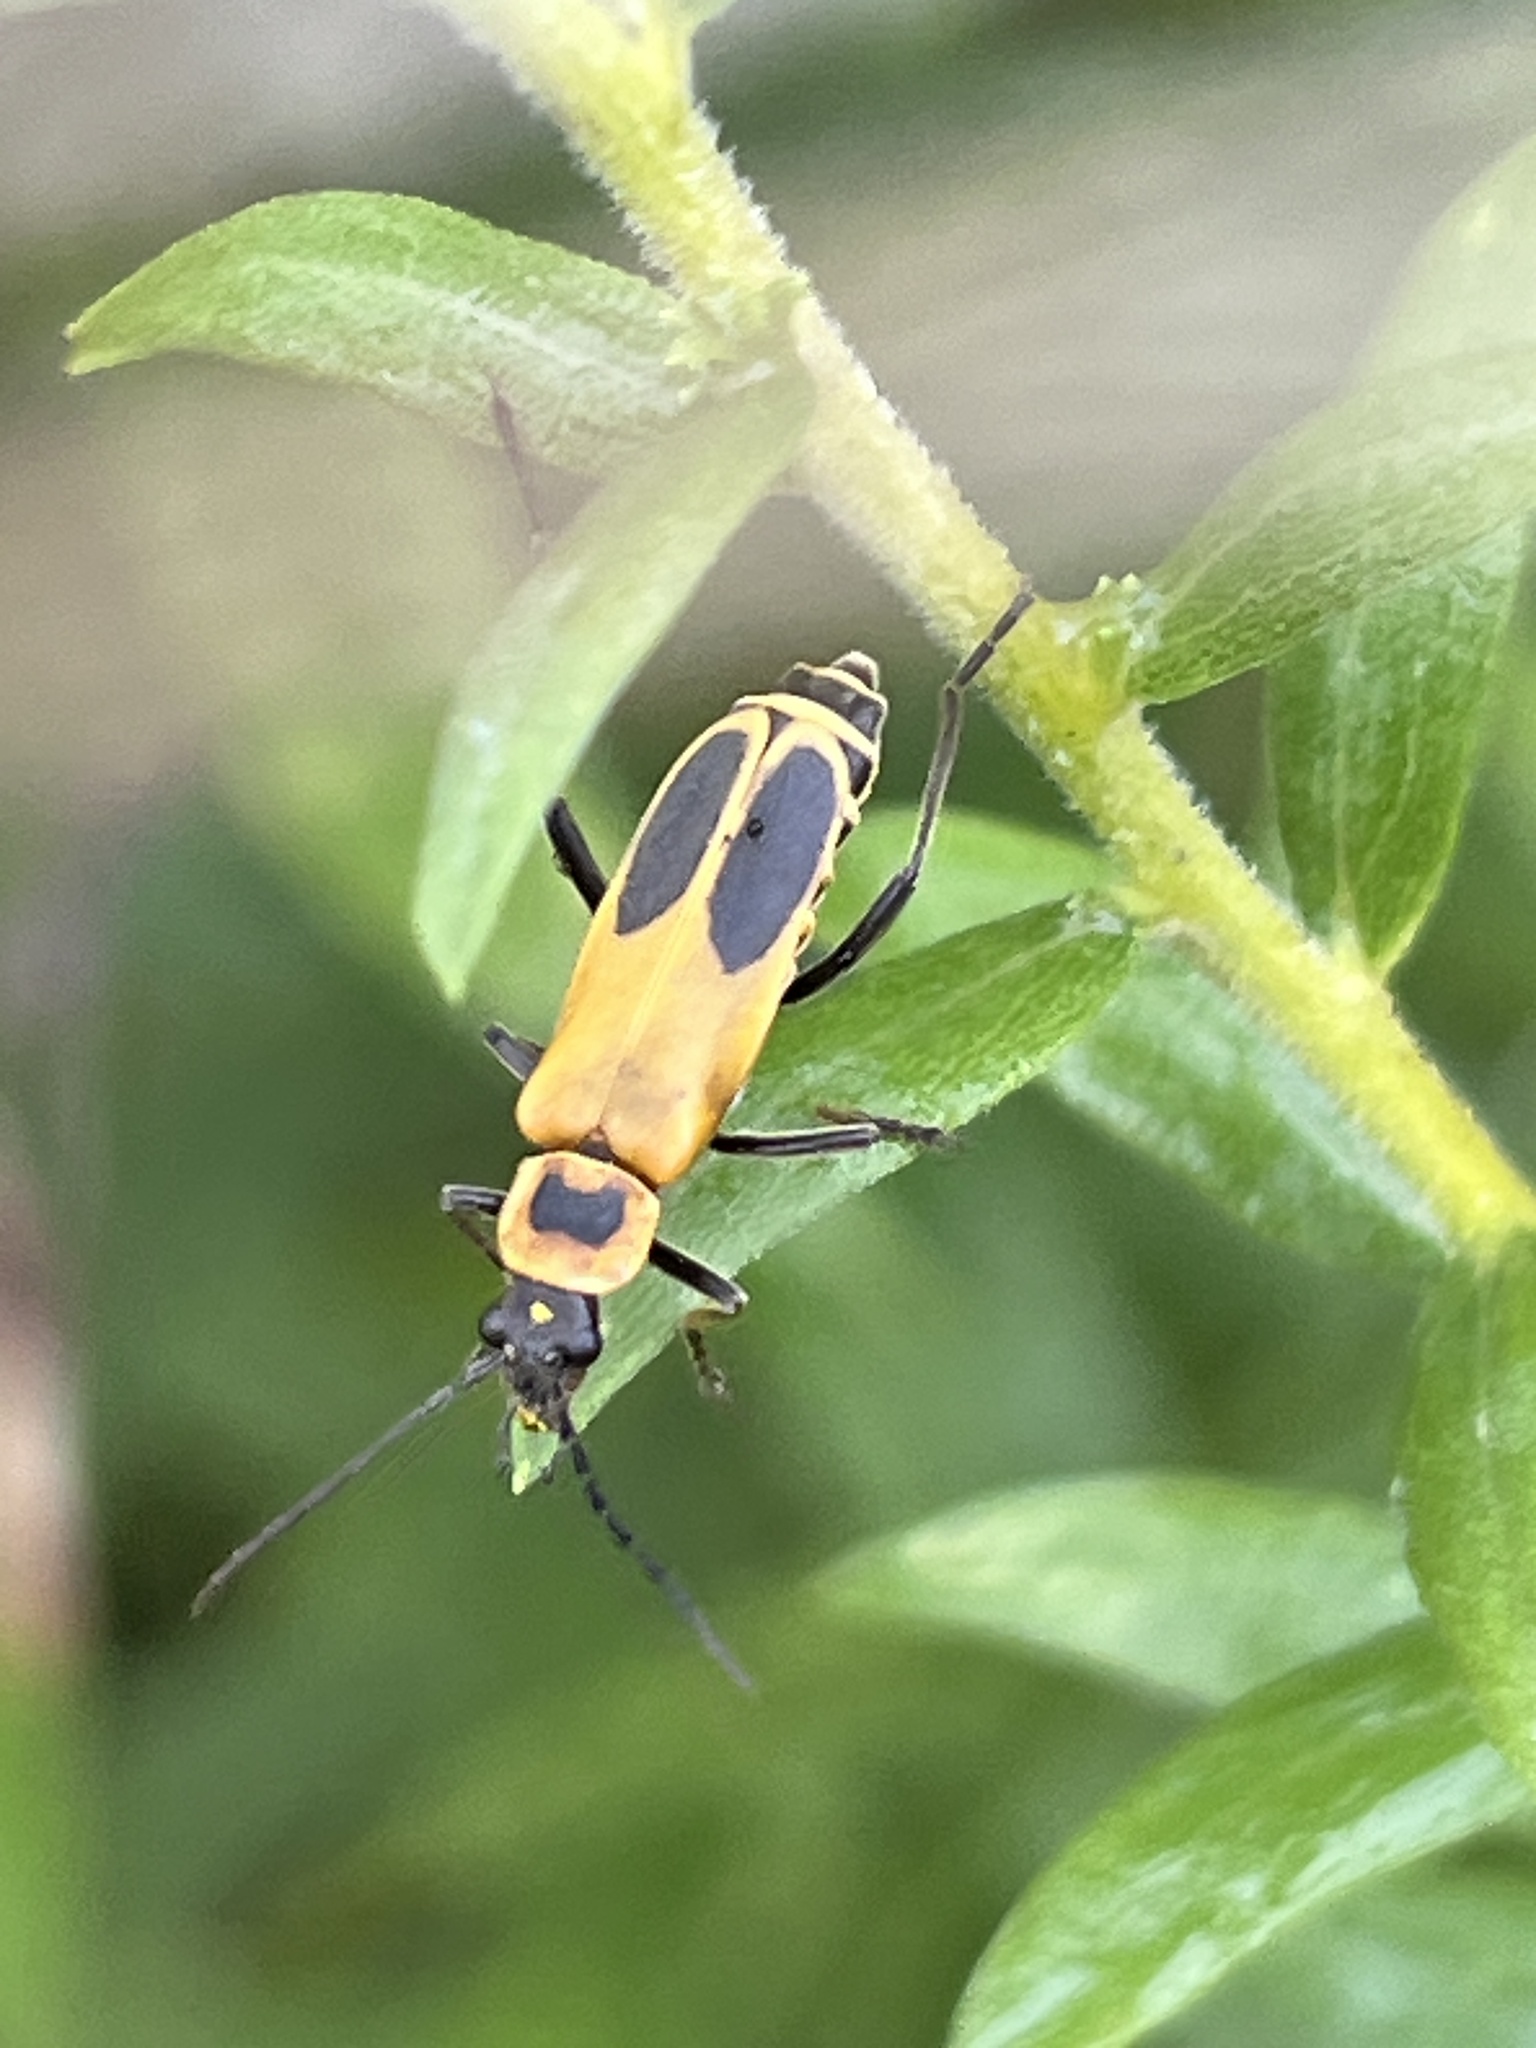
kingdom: Animalia
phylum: Arthropoda
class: Insecta
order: Coleoptera
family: Cantharidae
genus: Chauliognathus
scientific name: Chauliognathus pensylvanicus
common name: Goldenrod soldier beetle
